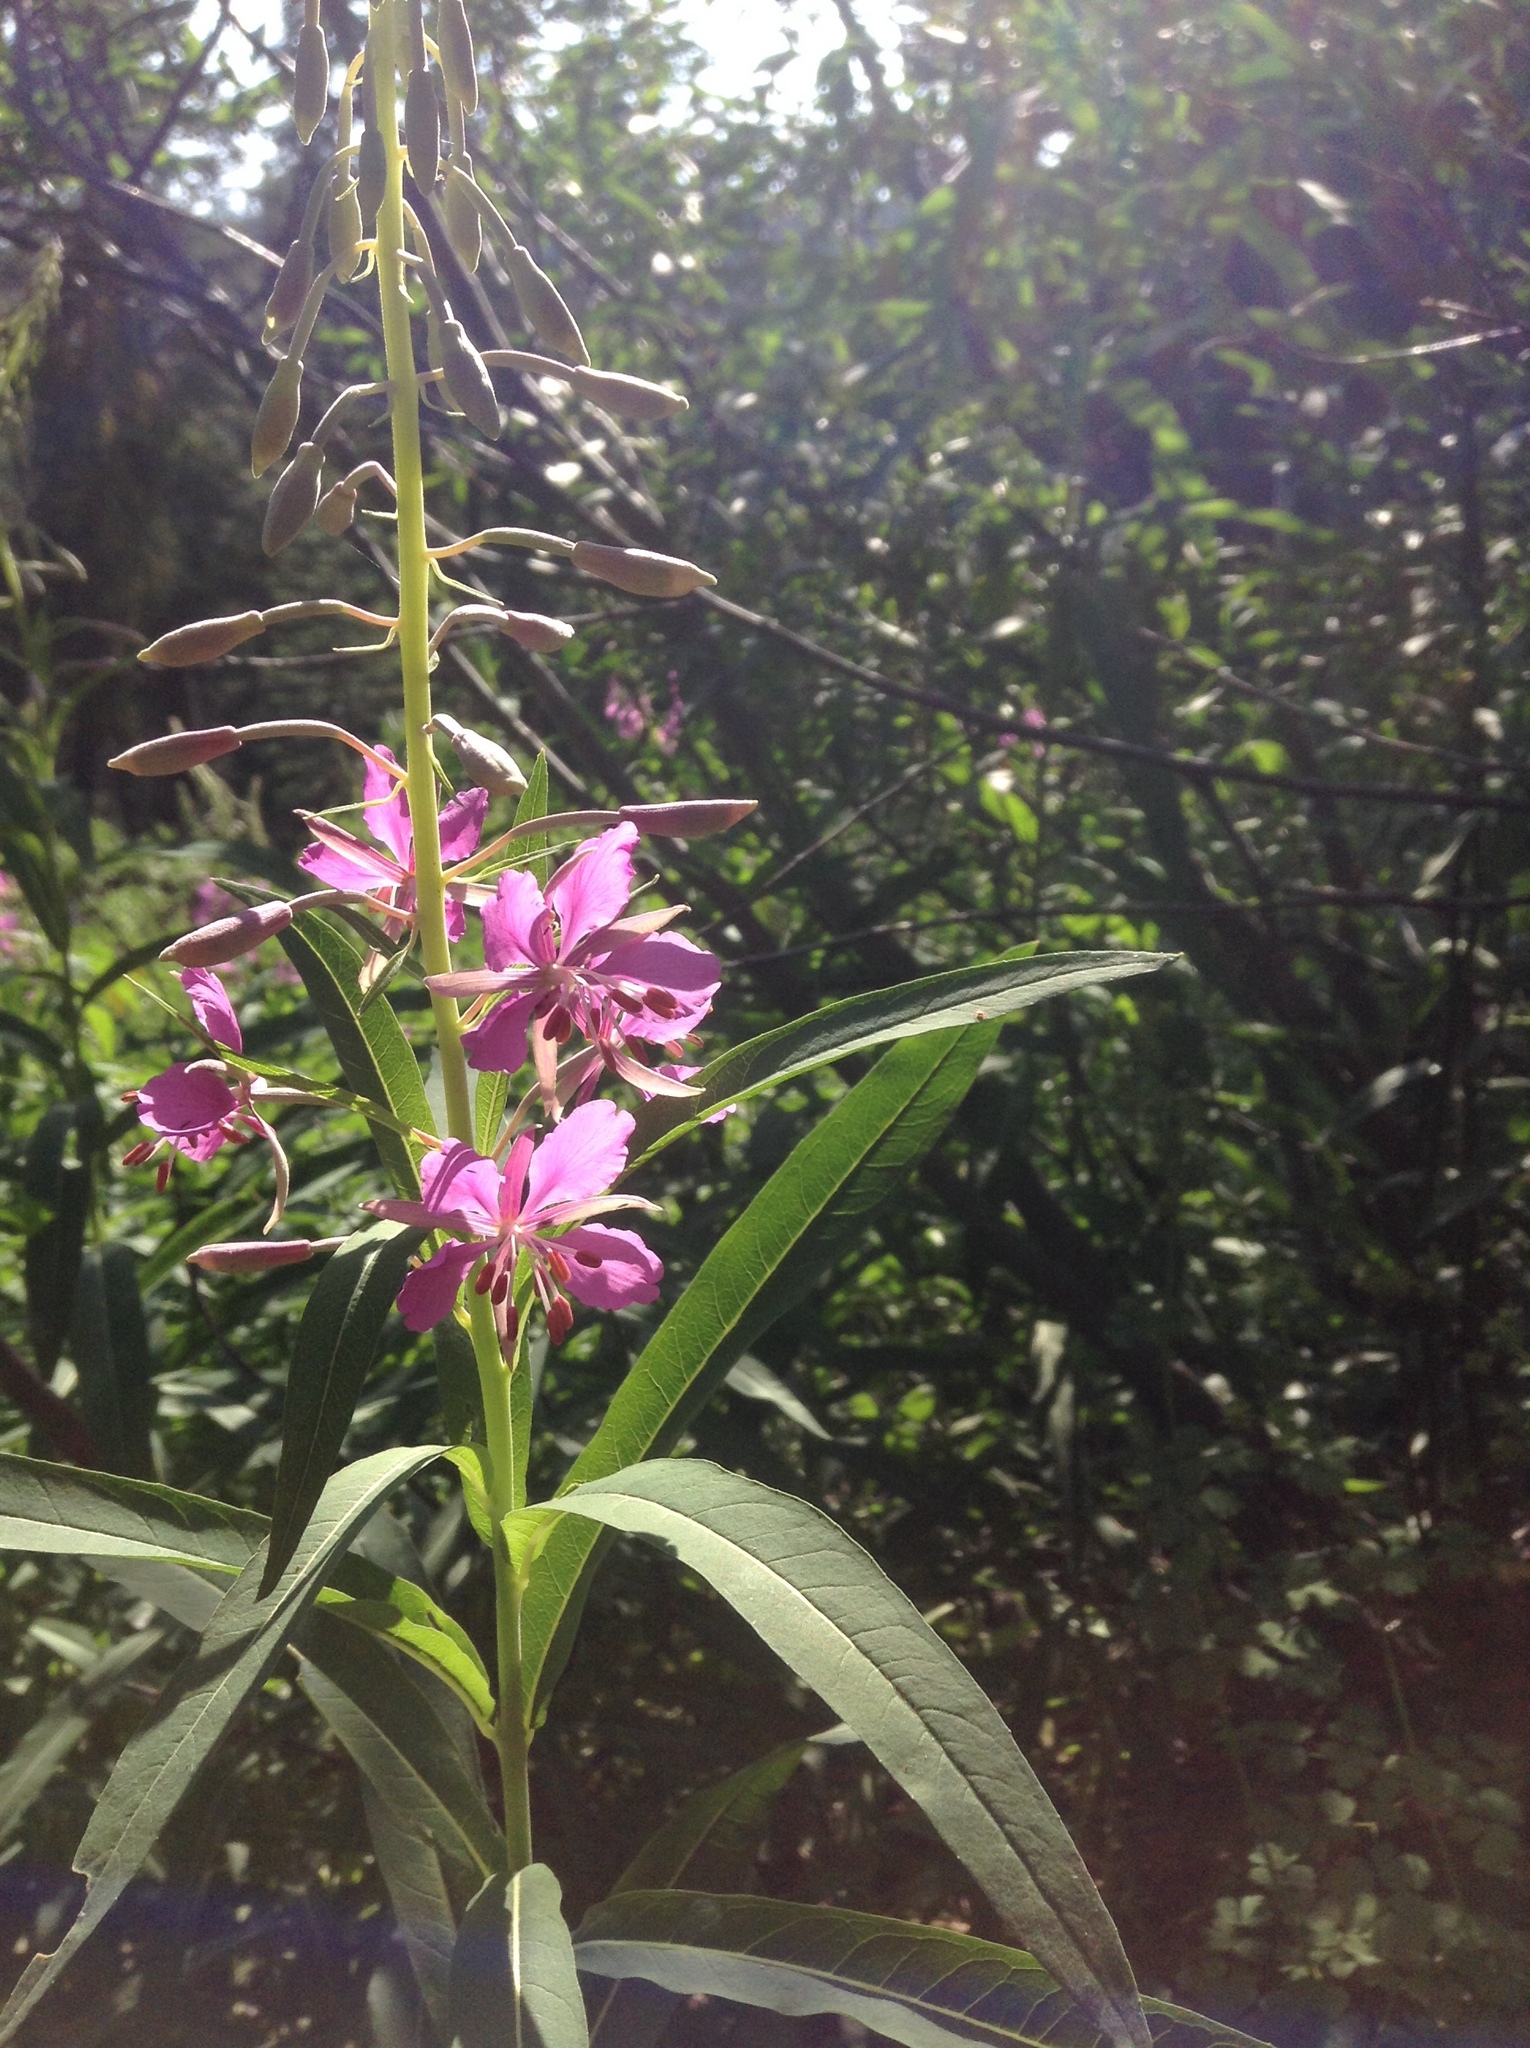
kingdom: Plantae
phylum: Tracheophyta
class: Magnoliopsida
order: Myrtales
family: Onagraceae
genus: Chamaenerion
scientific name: Chamaenerion angustifolium
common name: Fireweed
